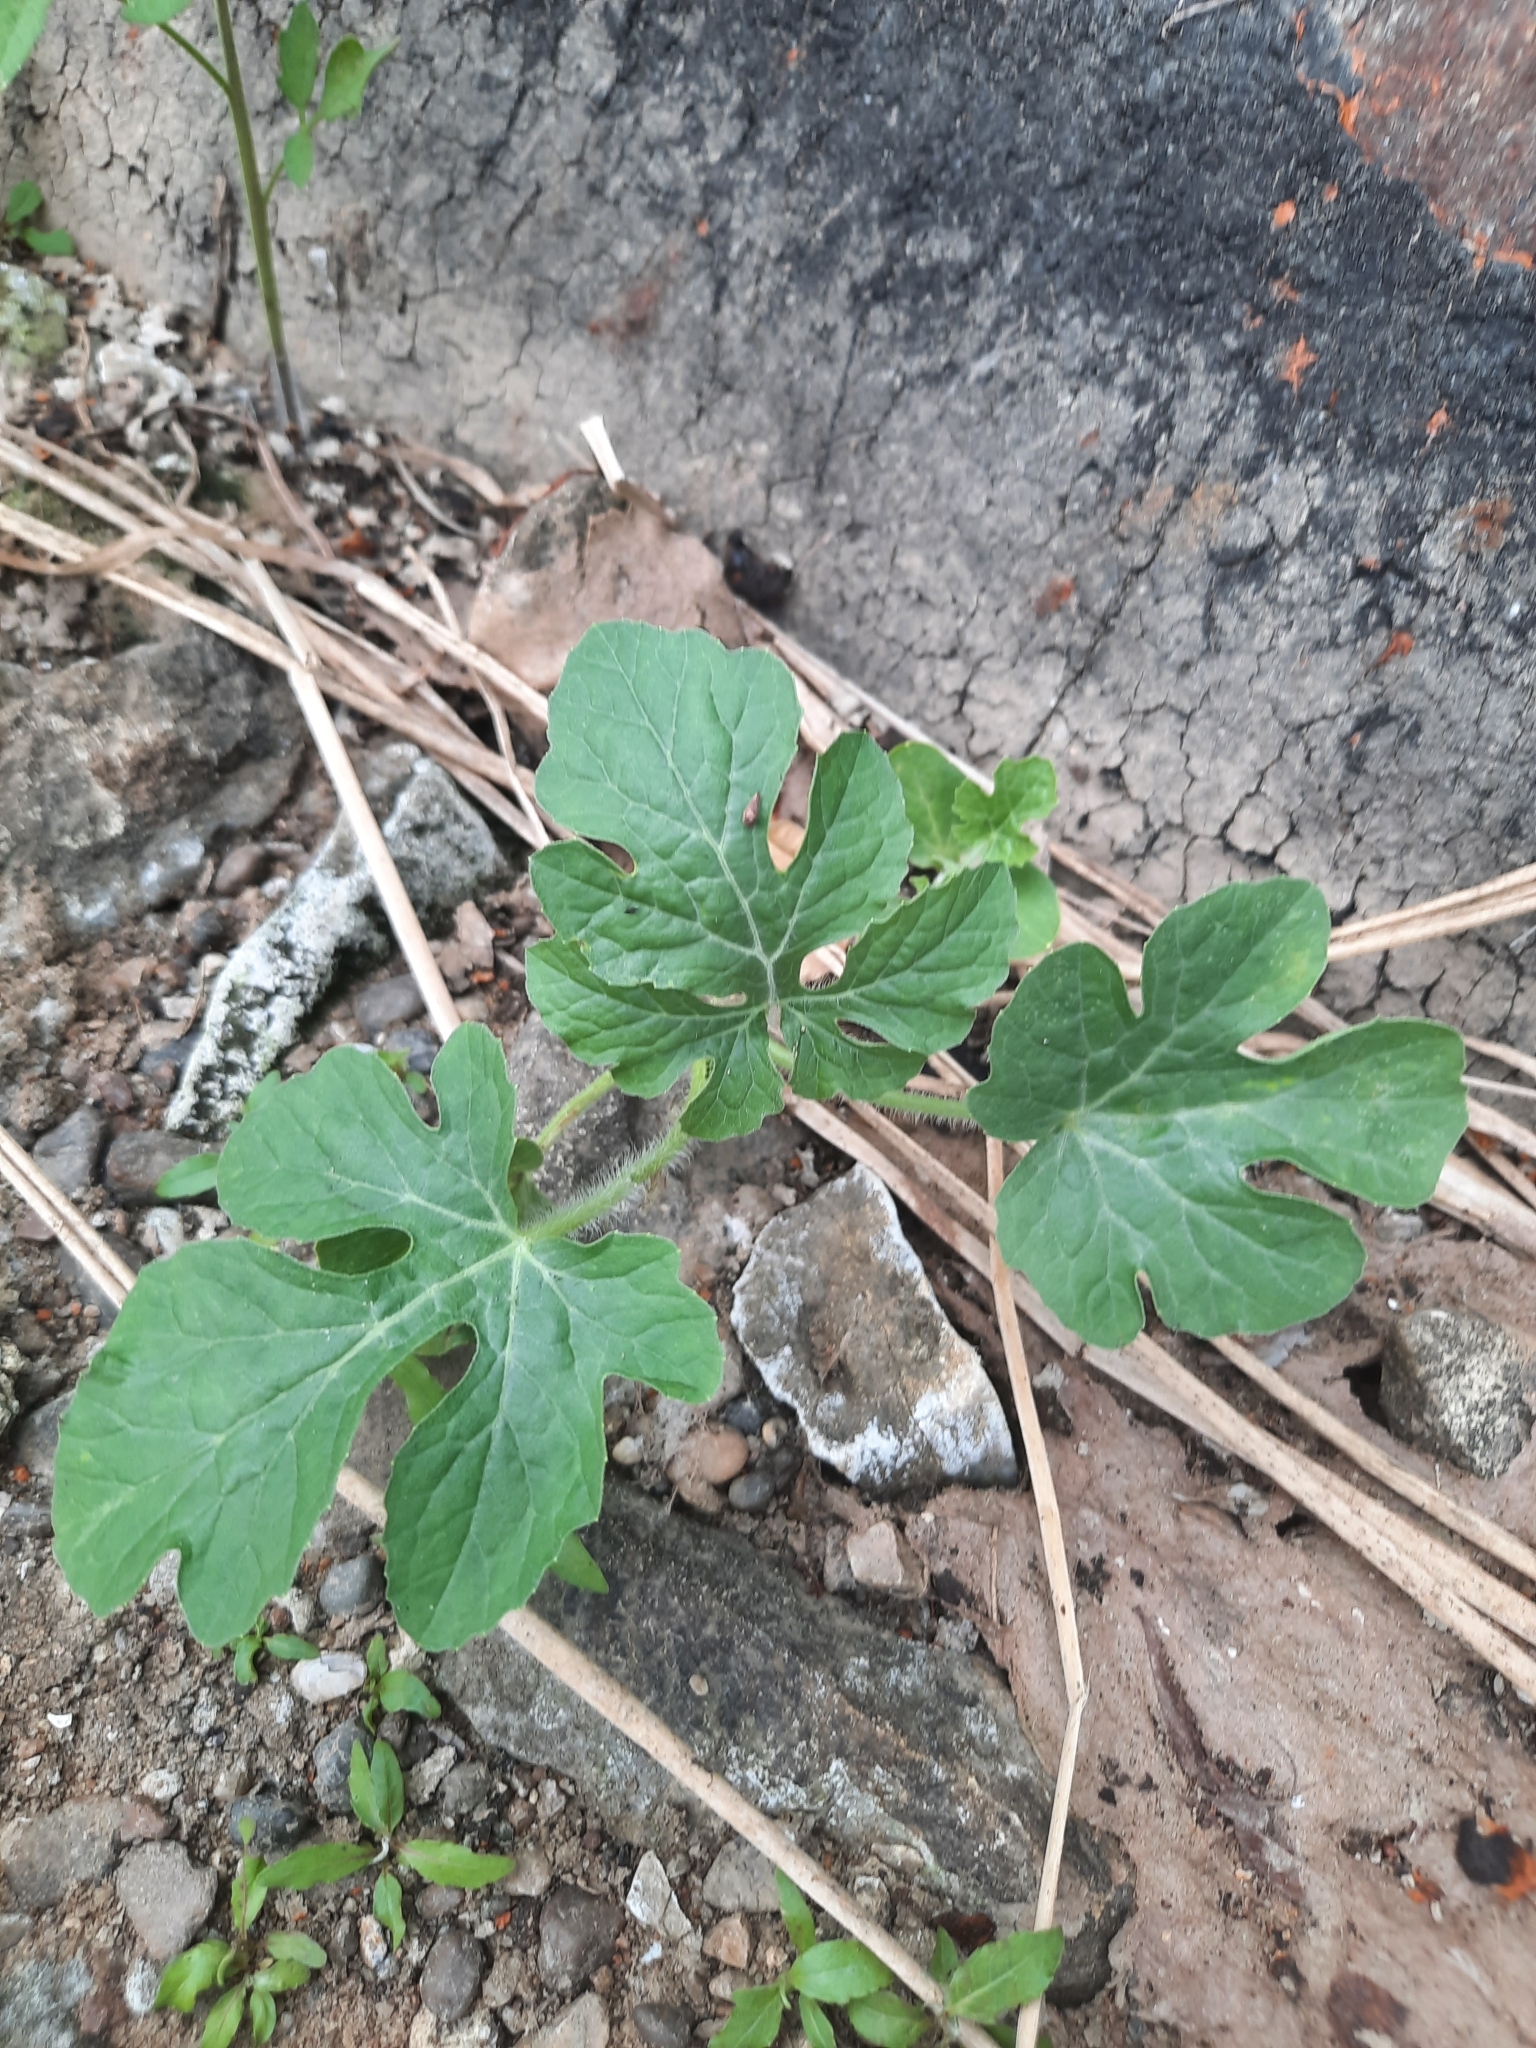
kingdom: Plantae
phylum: Tracheophyta
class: Magnoliopsida
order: Cucurbitales
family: Cucurbitaceae
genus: Citrullus
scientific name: Citrullus lanatus
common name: Watermelon
